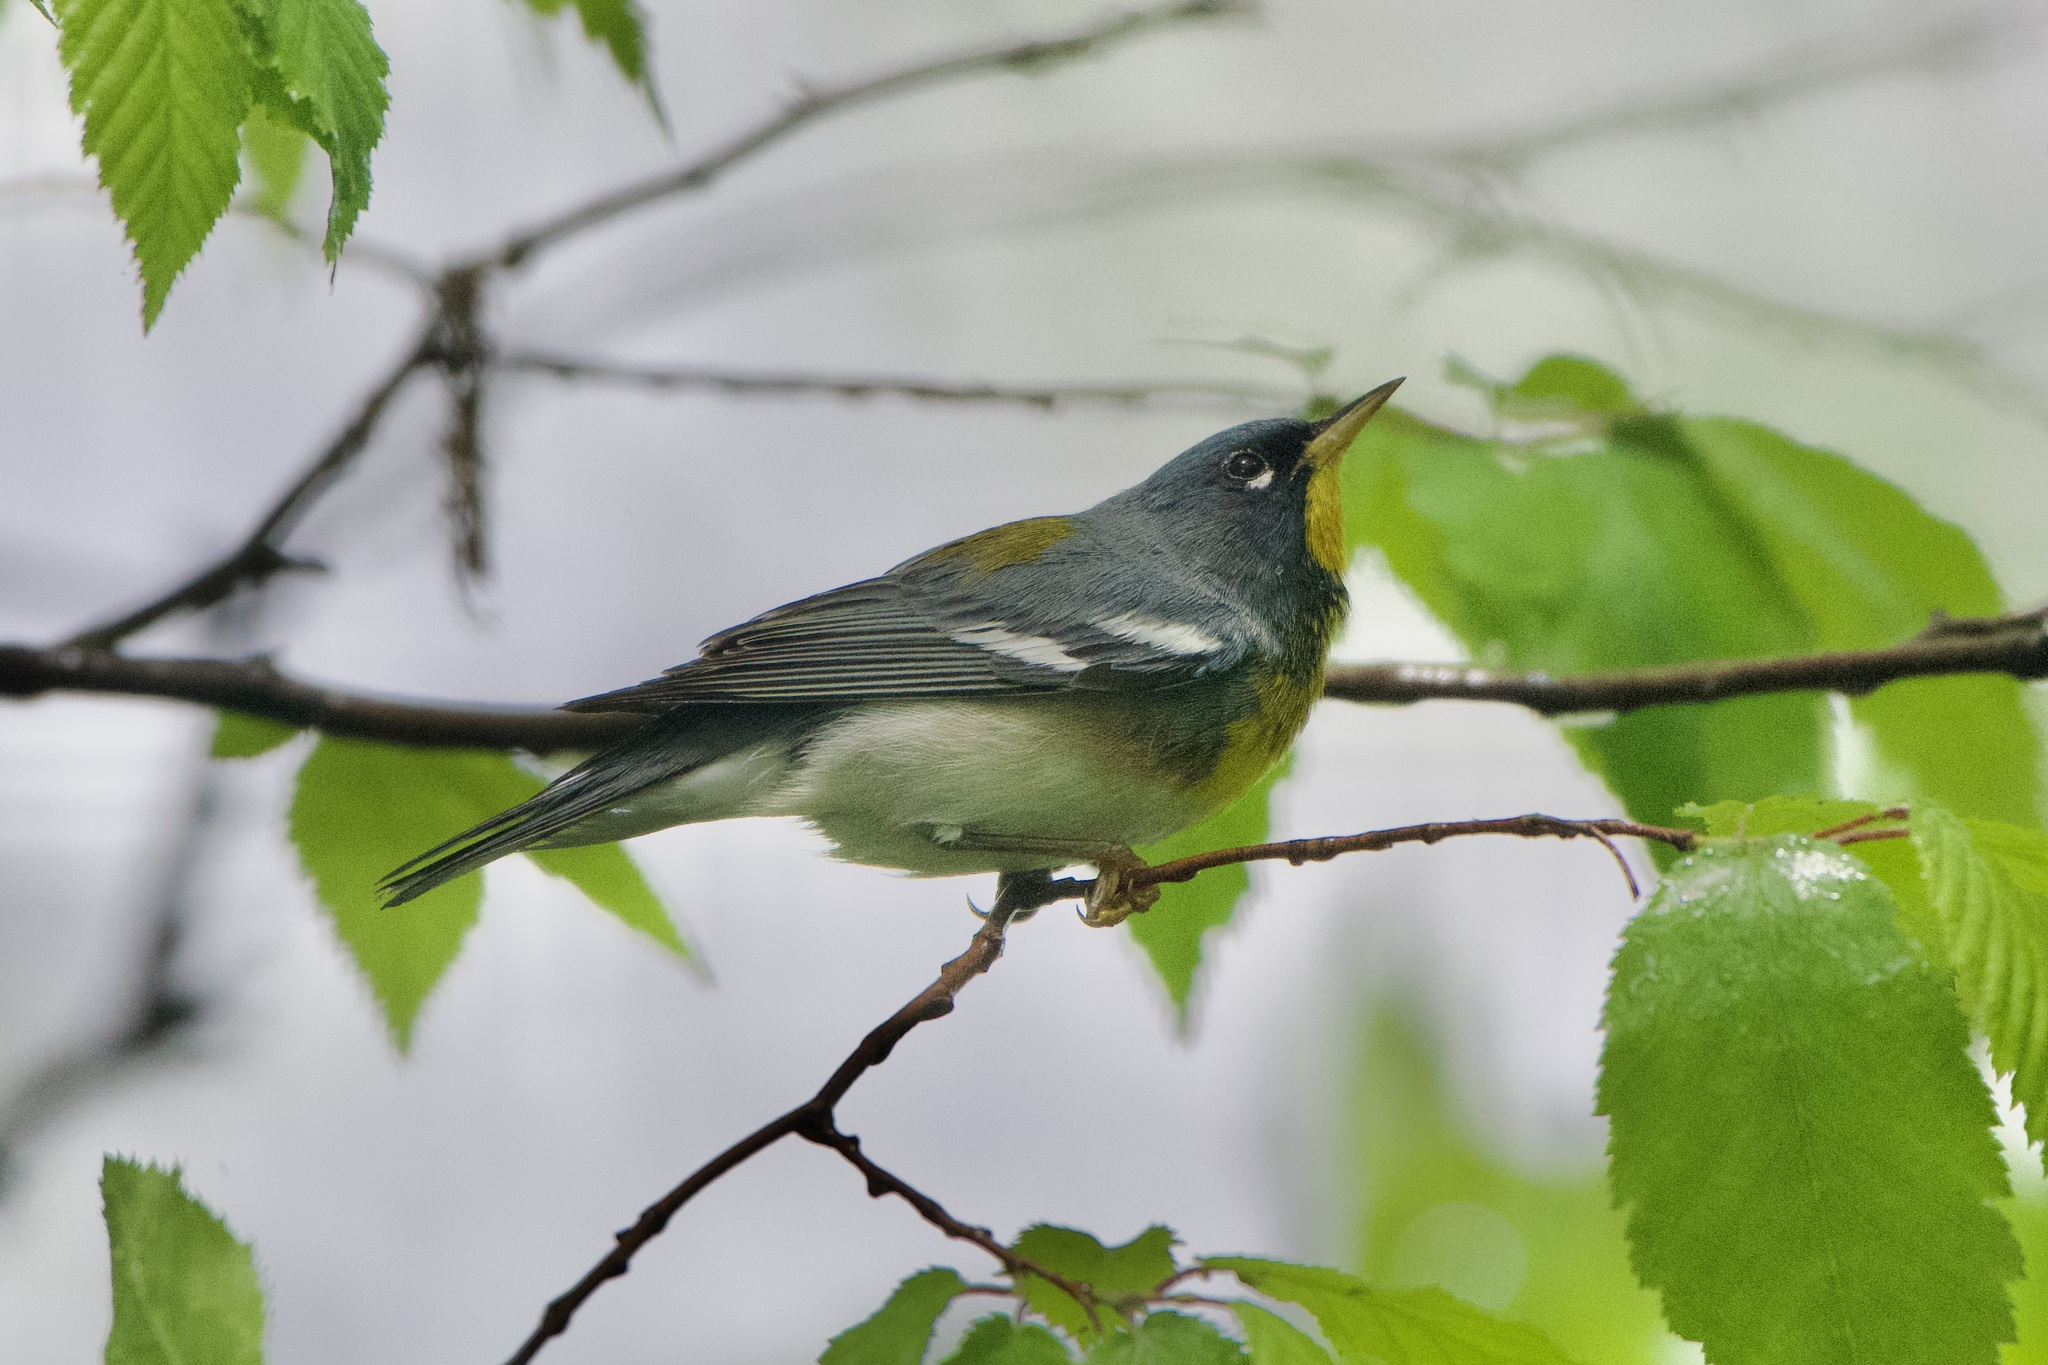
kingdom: Animalia
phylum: Chordata
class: Aves
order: Passeriformes
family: Parulidae
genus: Setophaga
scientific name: Setophaga americana
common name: Northern parula
